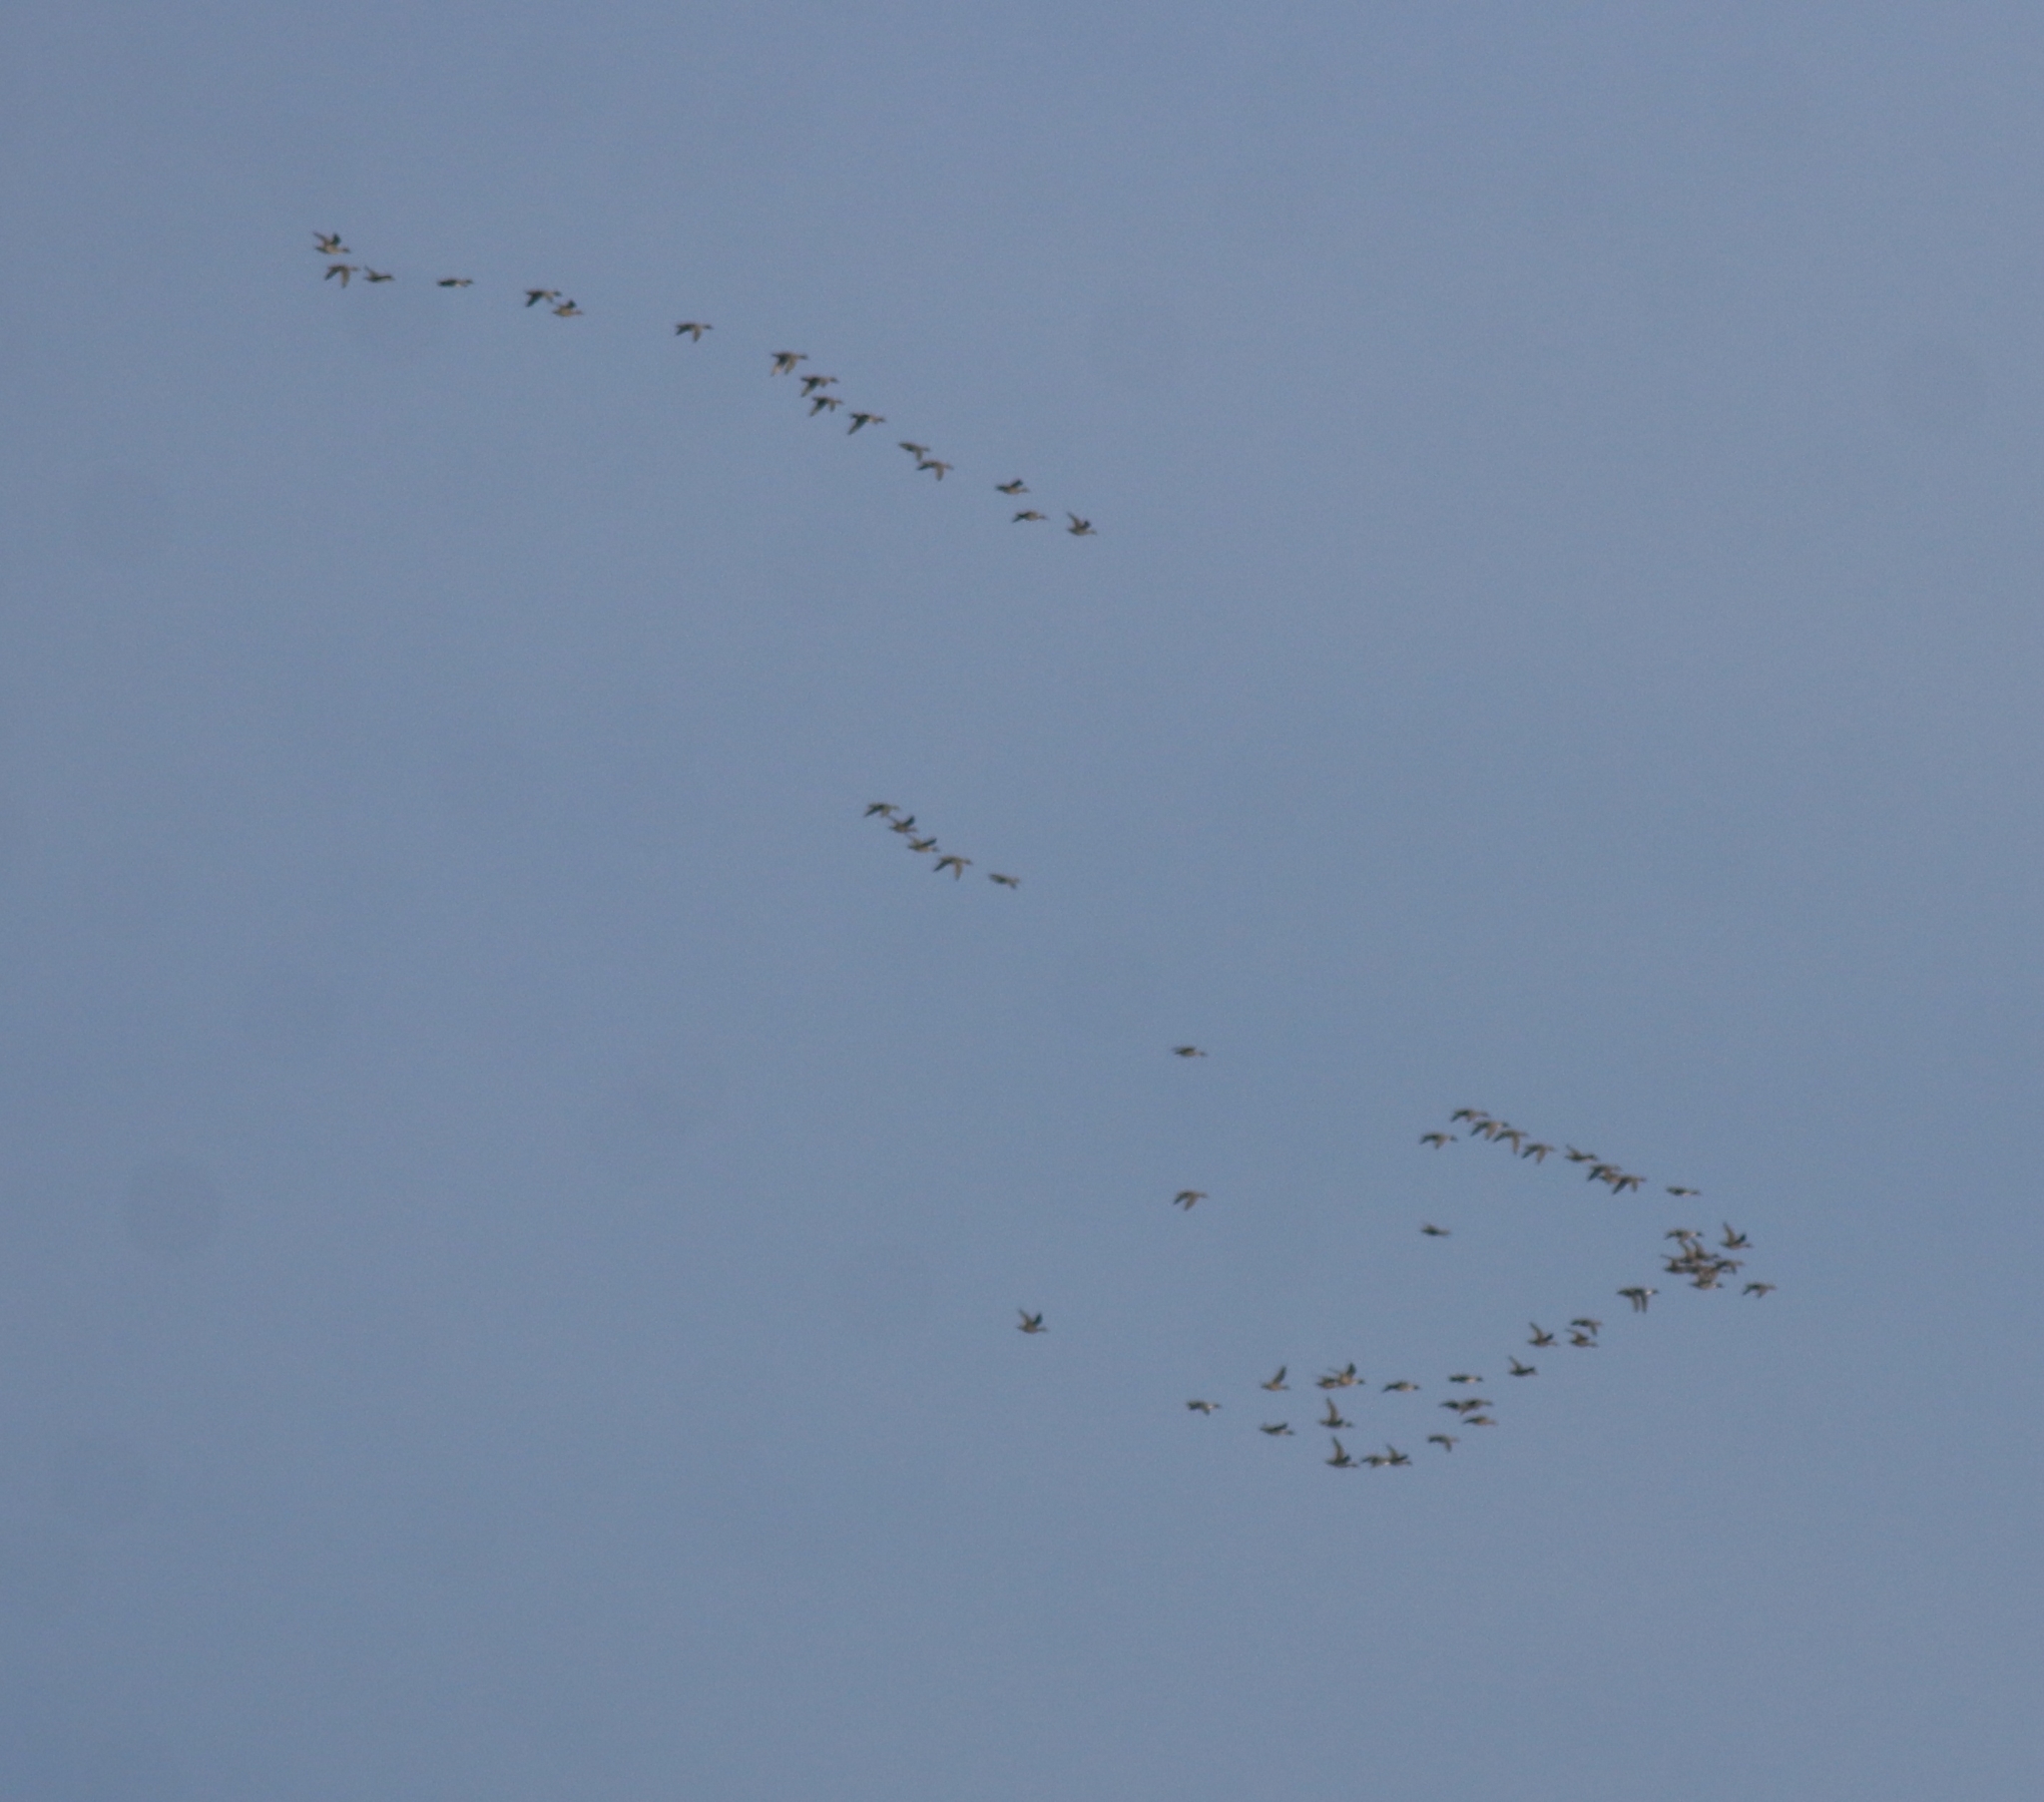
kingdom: Animalia
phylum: Chordata
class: Aves
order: Anseriformes
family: Anatidae
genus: Anas
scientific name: Anas acuta
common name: Northern pintail
